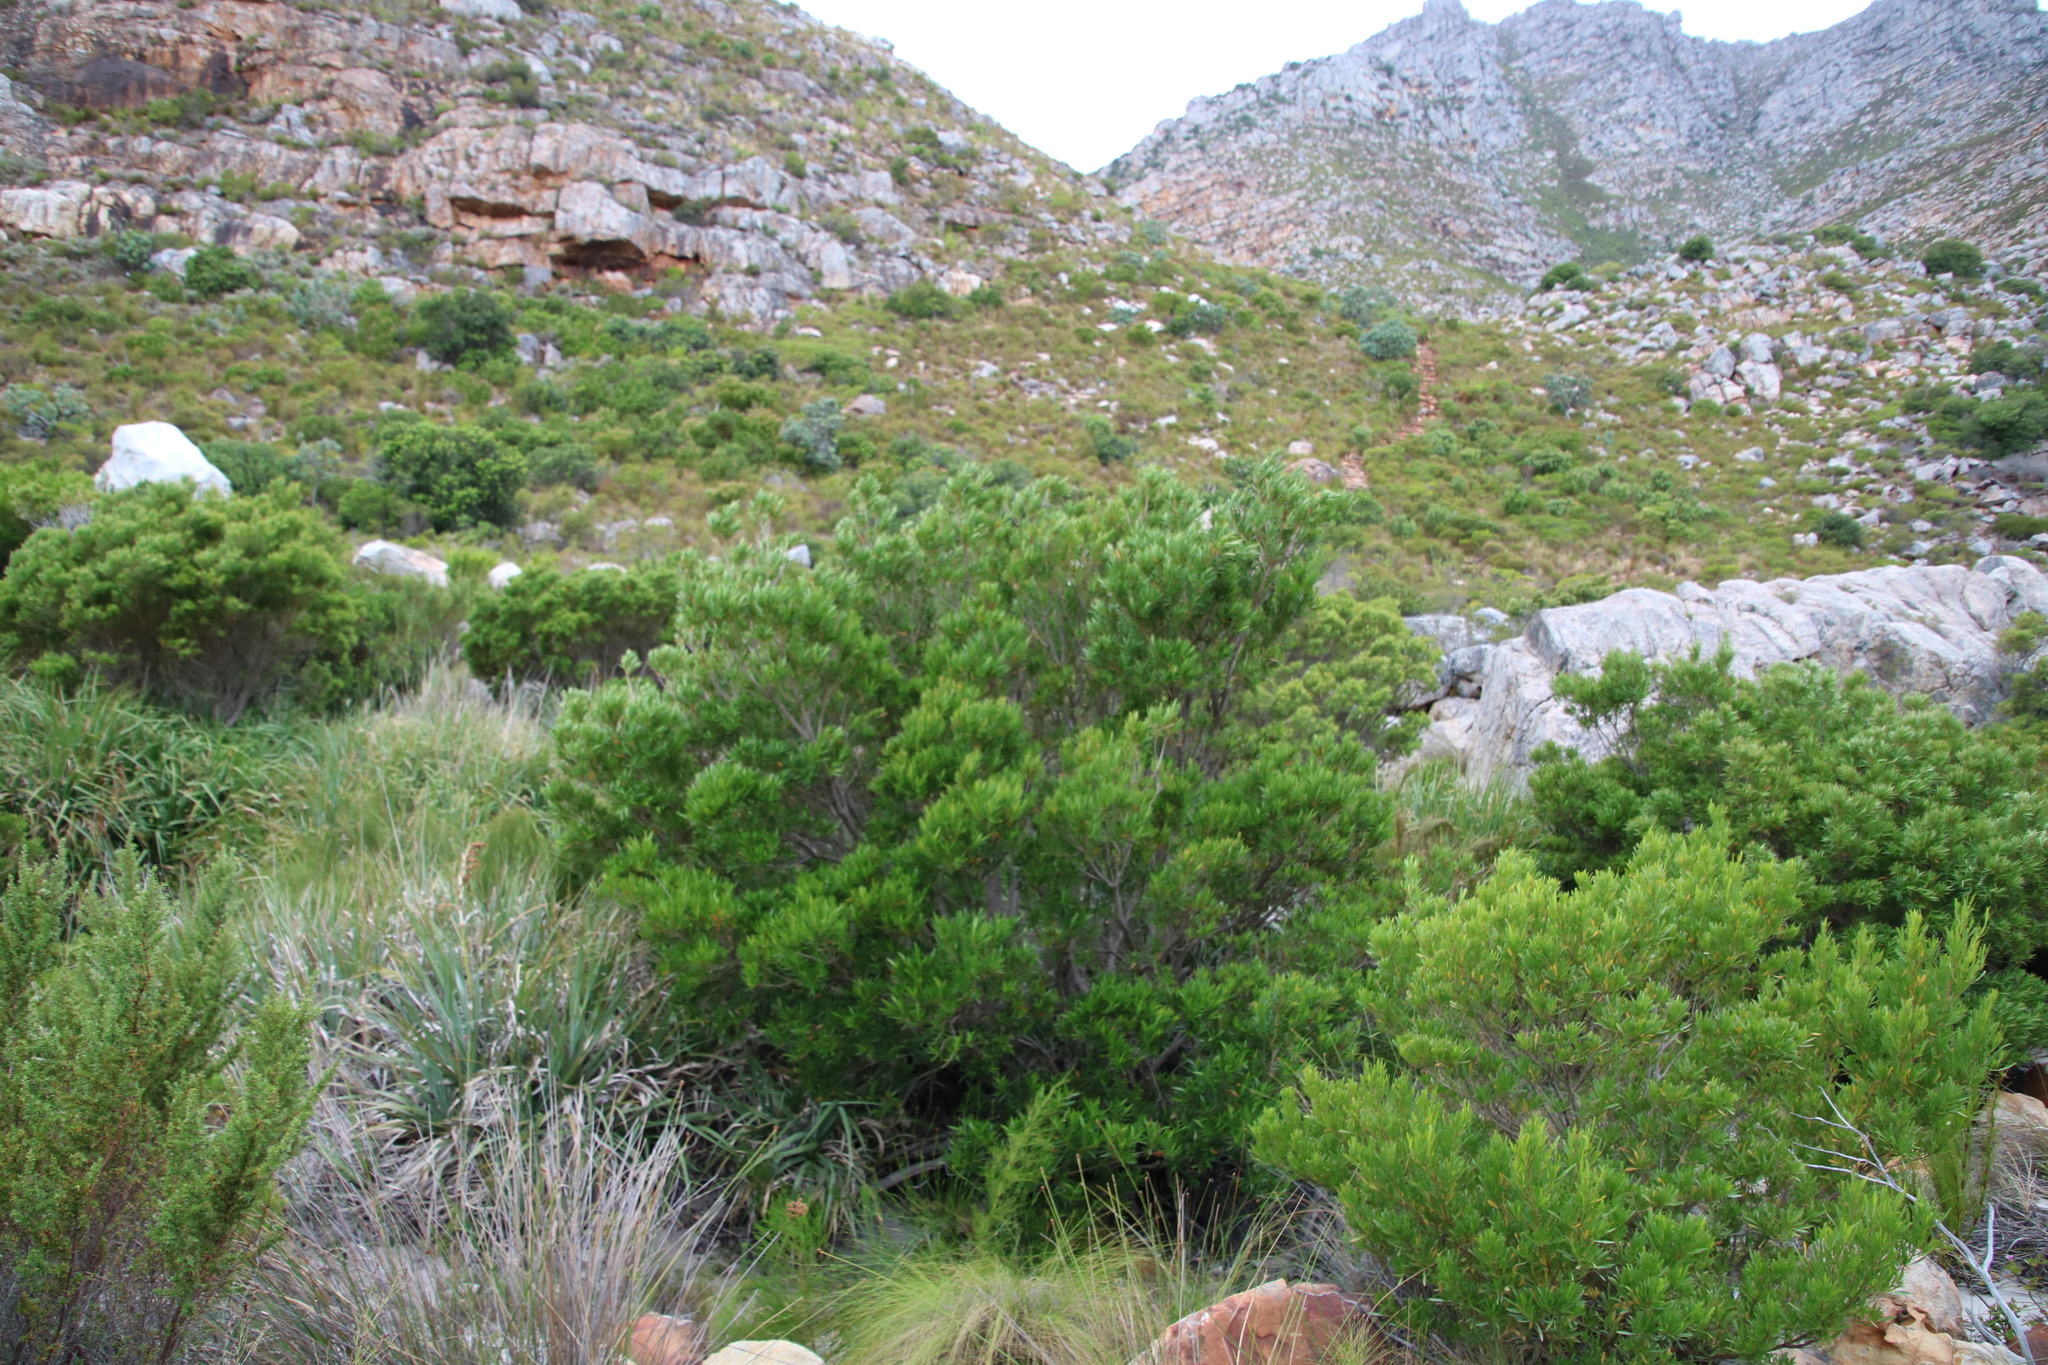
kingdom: Plantae
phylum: Tracheophyta
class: Magnoliopsida
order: Myrtales
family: Myrtaceae
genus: Callistemon
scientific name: Callistemon lanceolatus
